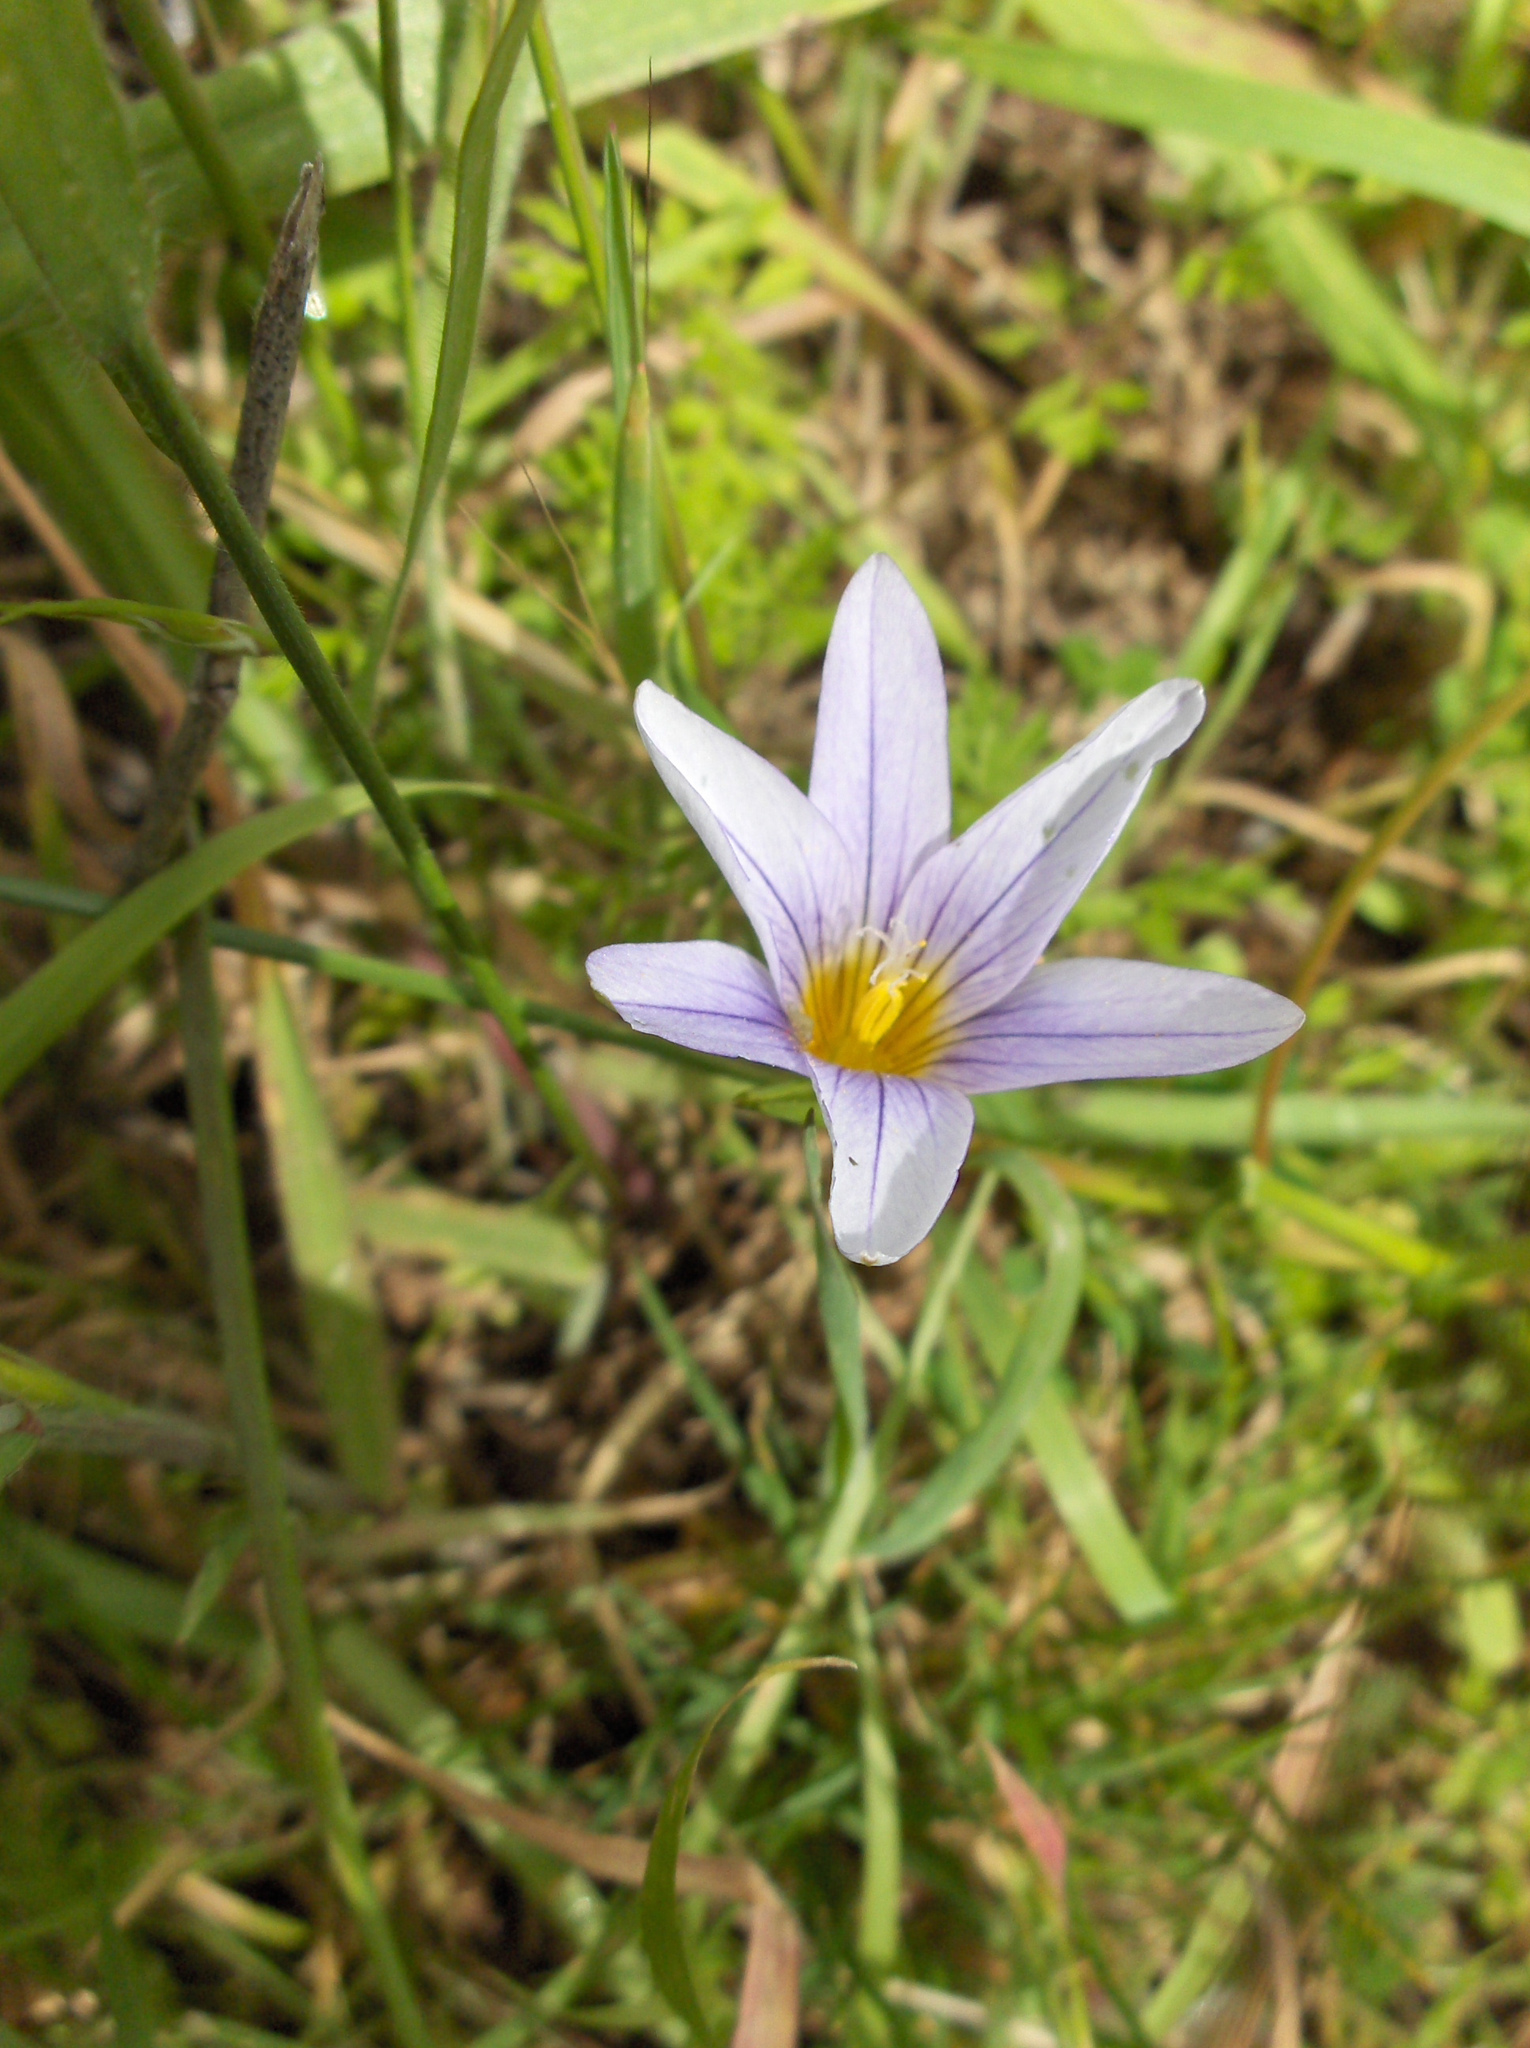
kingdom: Plantae
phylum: Tracheophyta
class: Liliopsida
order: Asparagales
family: Iridaceae
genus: Romulea
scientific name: Romulea columnae
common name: Sand-crocus
